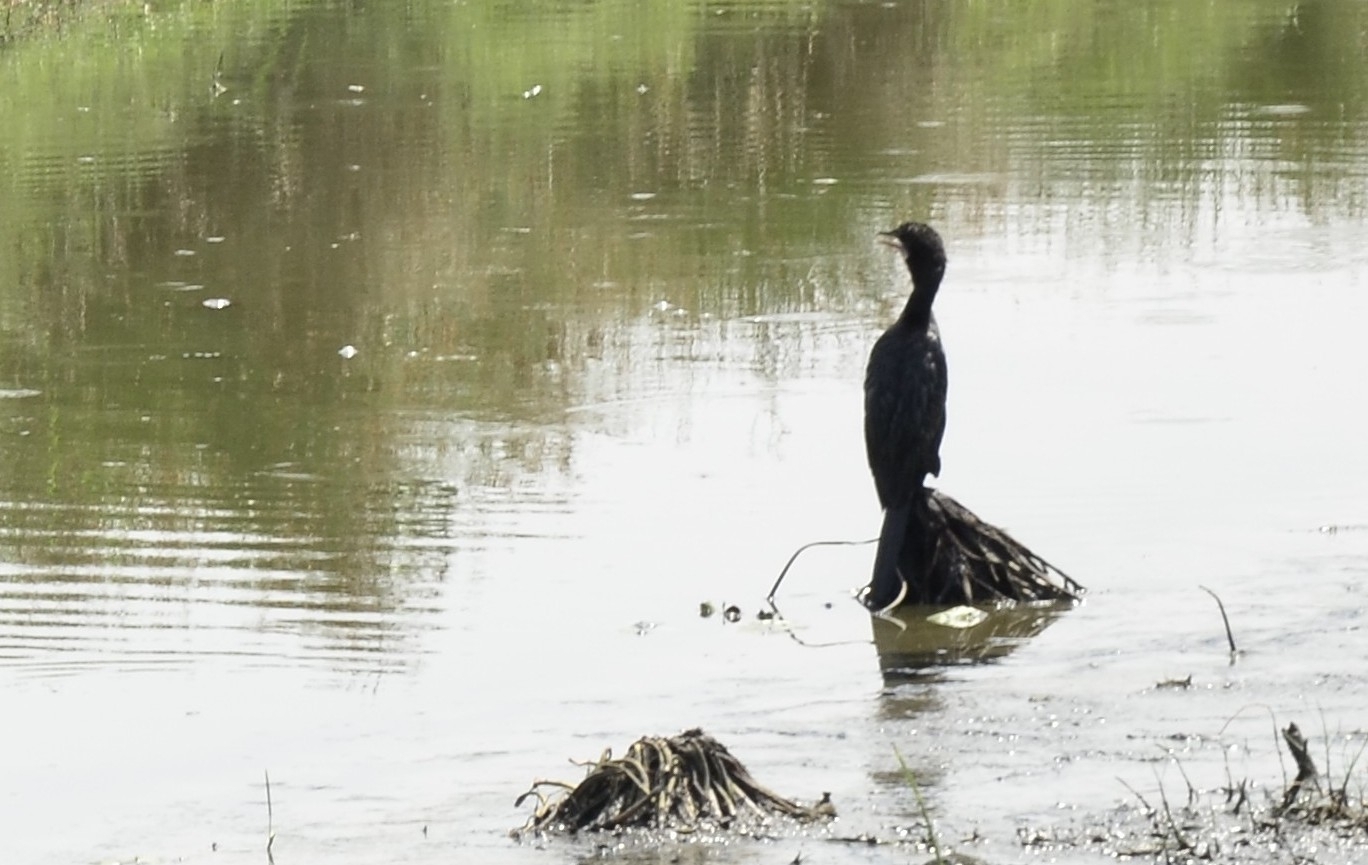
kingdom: Animalia
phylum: Chordata
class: Aves
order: Suliformes
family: Phalacrocoracidae
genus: Microcarbo
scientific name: Microcarbo niger
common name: Little cormorant
